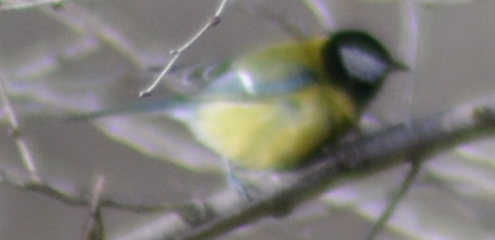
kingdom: Animalia
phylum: Chordata
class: Aves
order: Passeriformes
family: Paridae
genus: Parus
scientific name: Parus major
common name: Great tit
